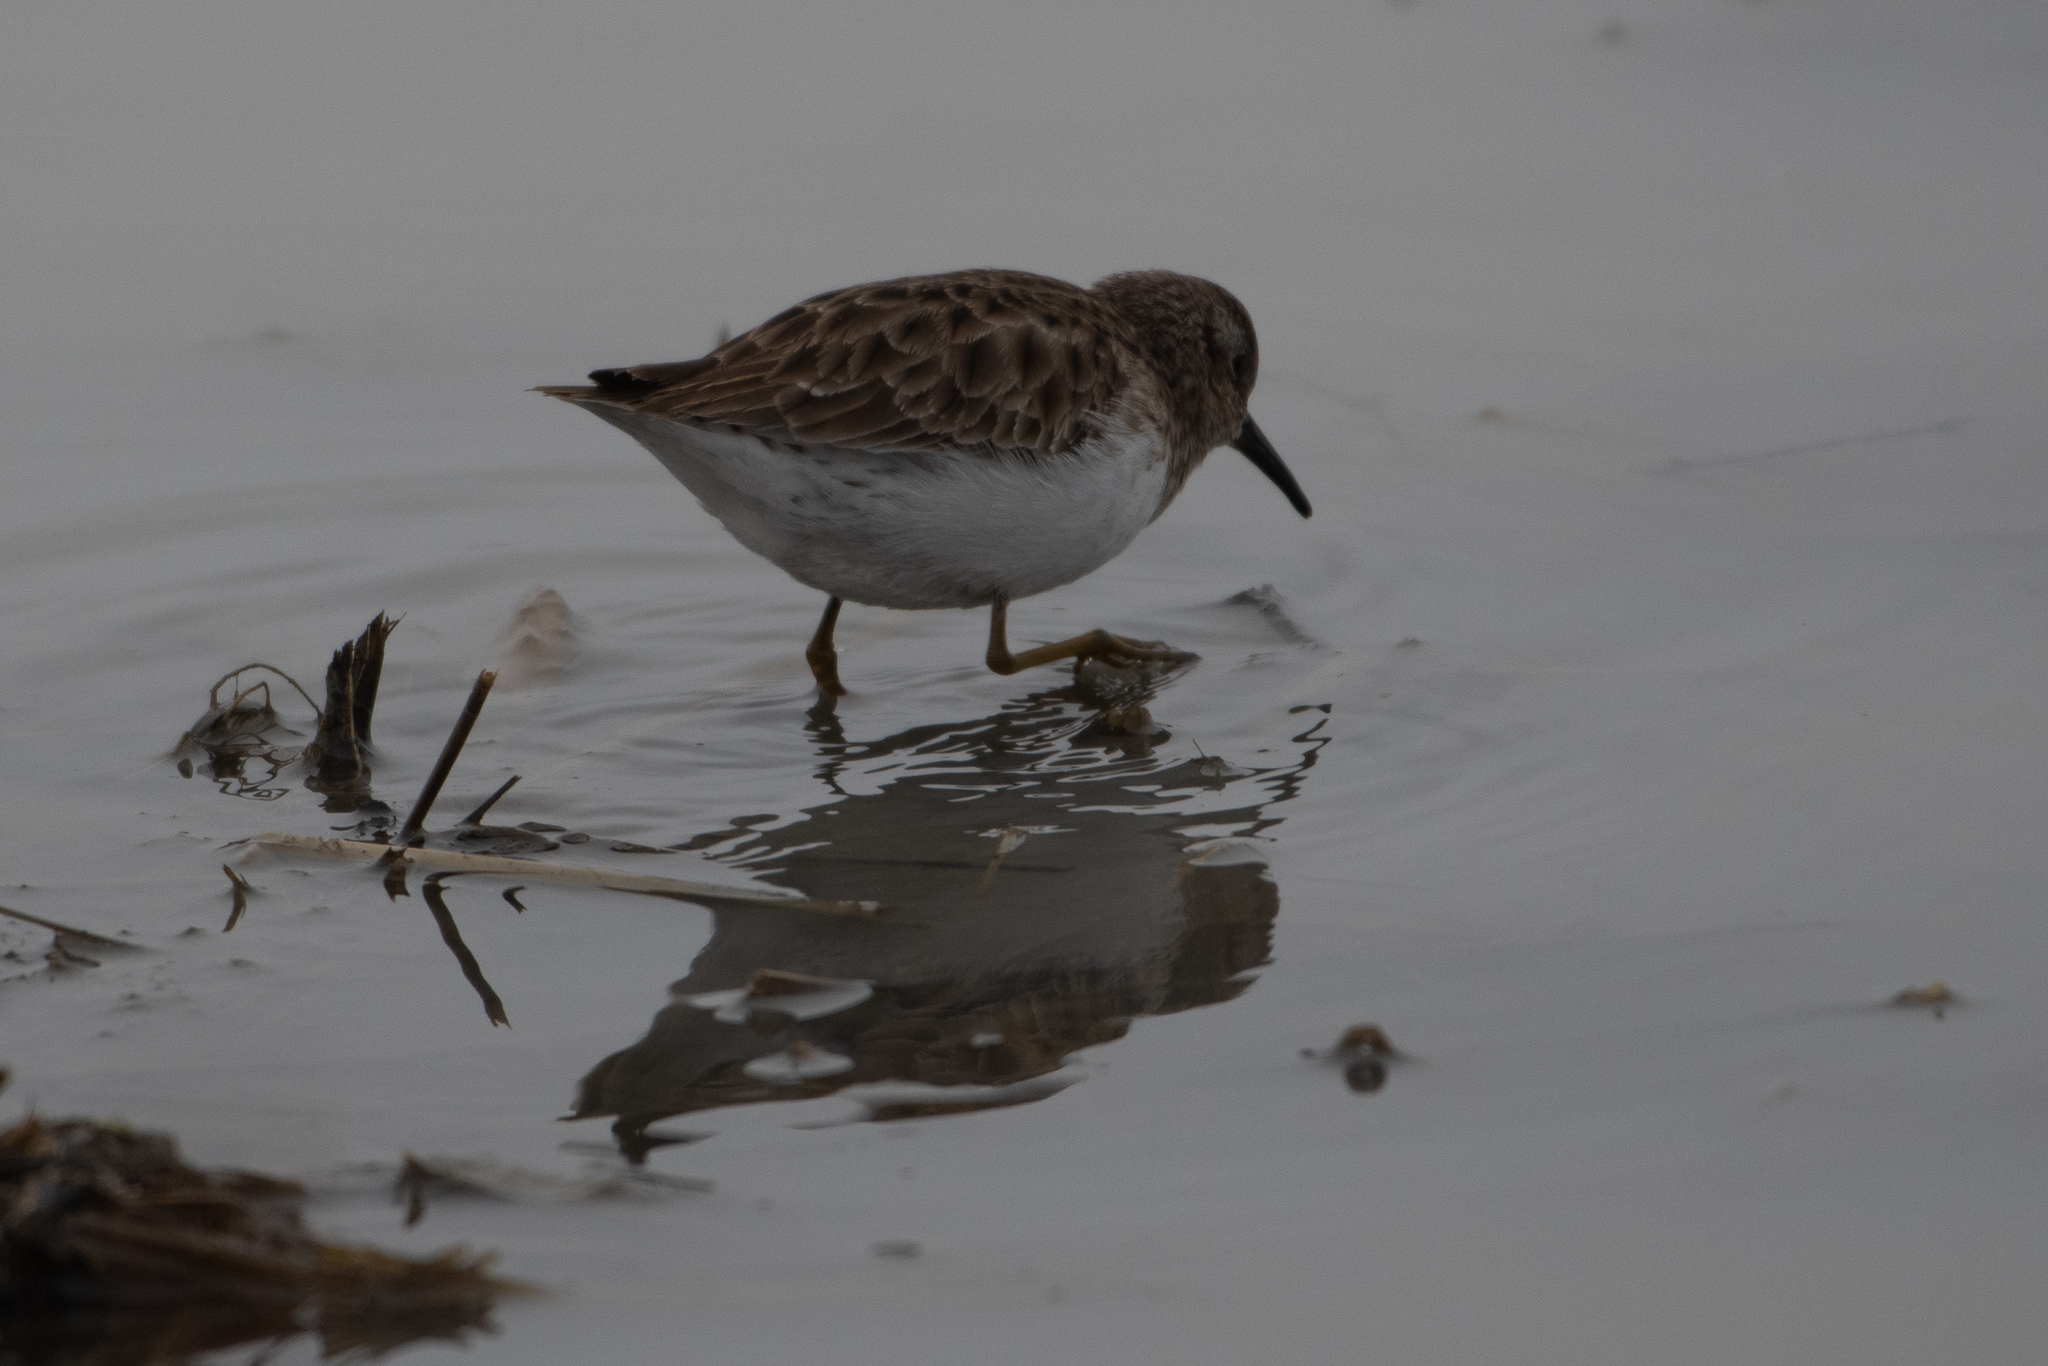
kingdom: Animalia
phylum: Chordata
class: Aves
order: Charadriiformes
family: Scolopacidae
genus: Calidris
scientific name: Calidris minutilla
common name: Least sandpiper
